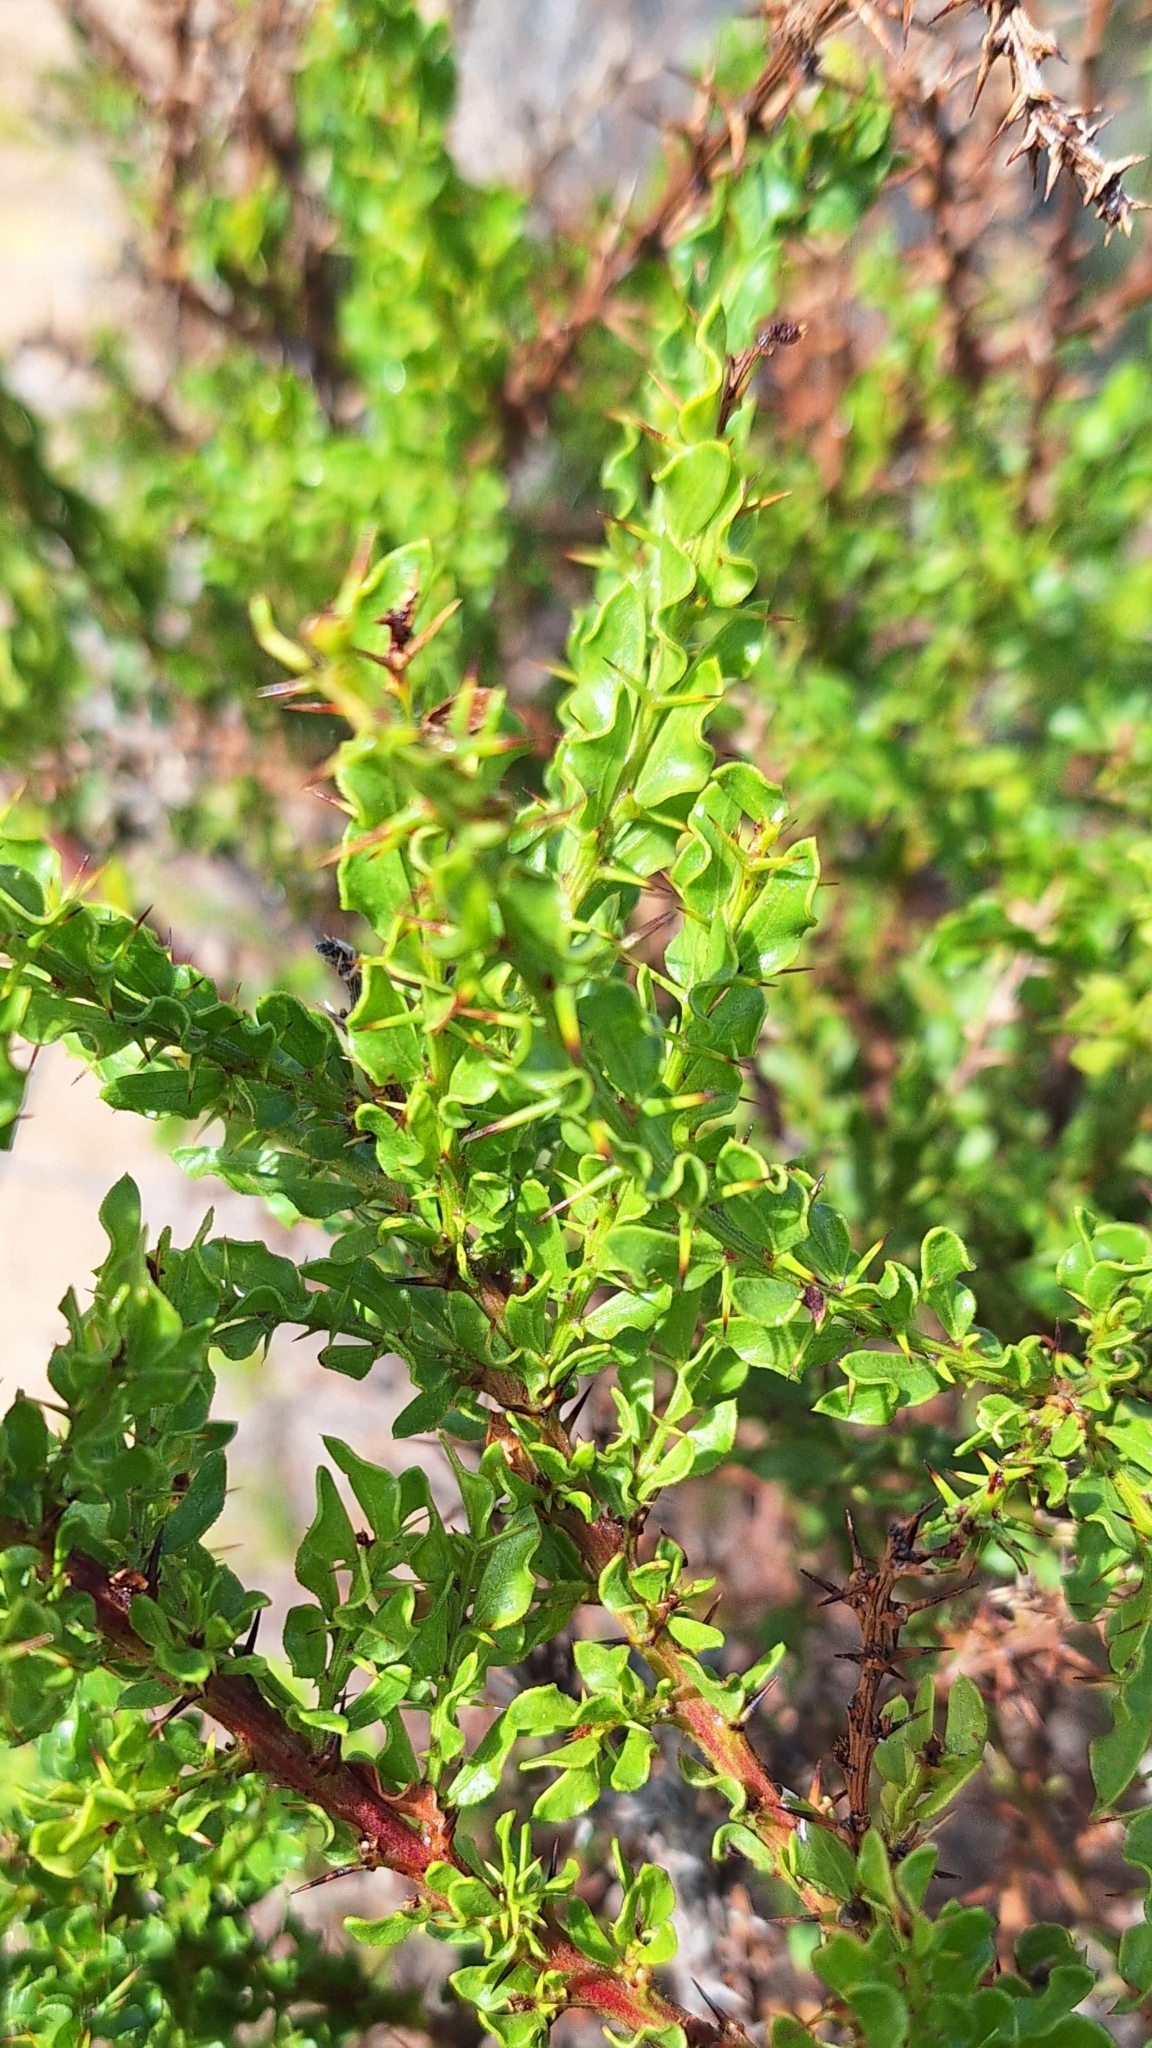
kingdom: Plantae
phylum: Tracheophyta
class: Magnoliopsida
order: Fabales
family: Fabaceae
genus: Acacia
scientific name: Acacia paradoxa
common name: Paradox acacia
